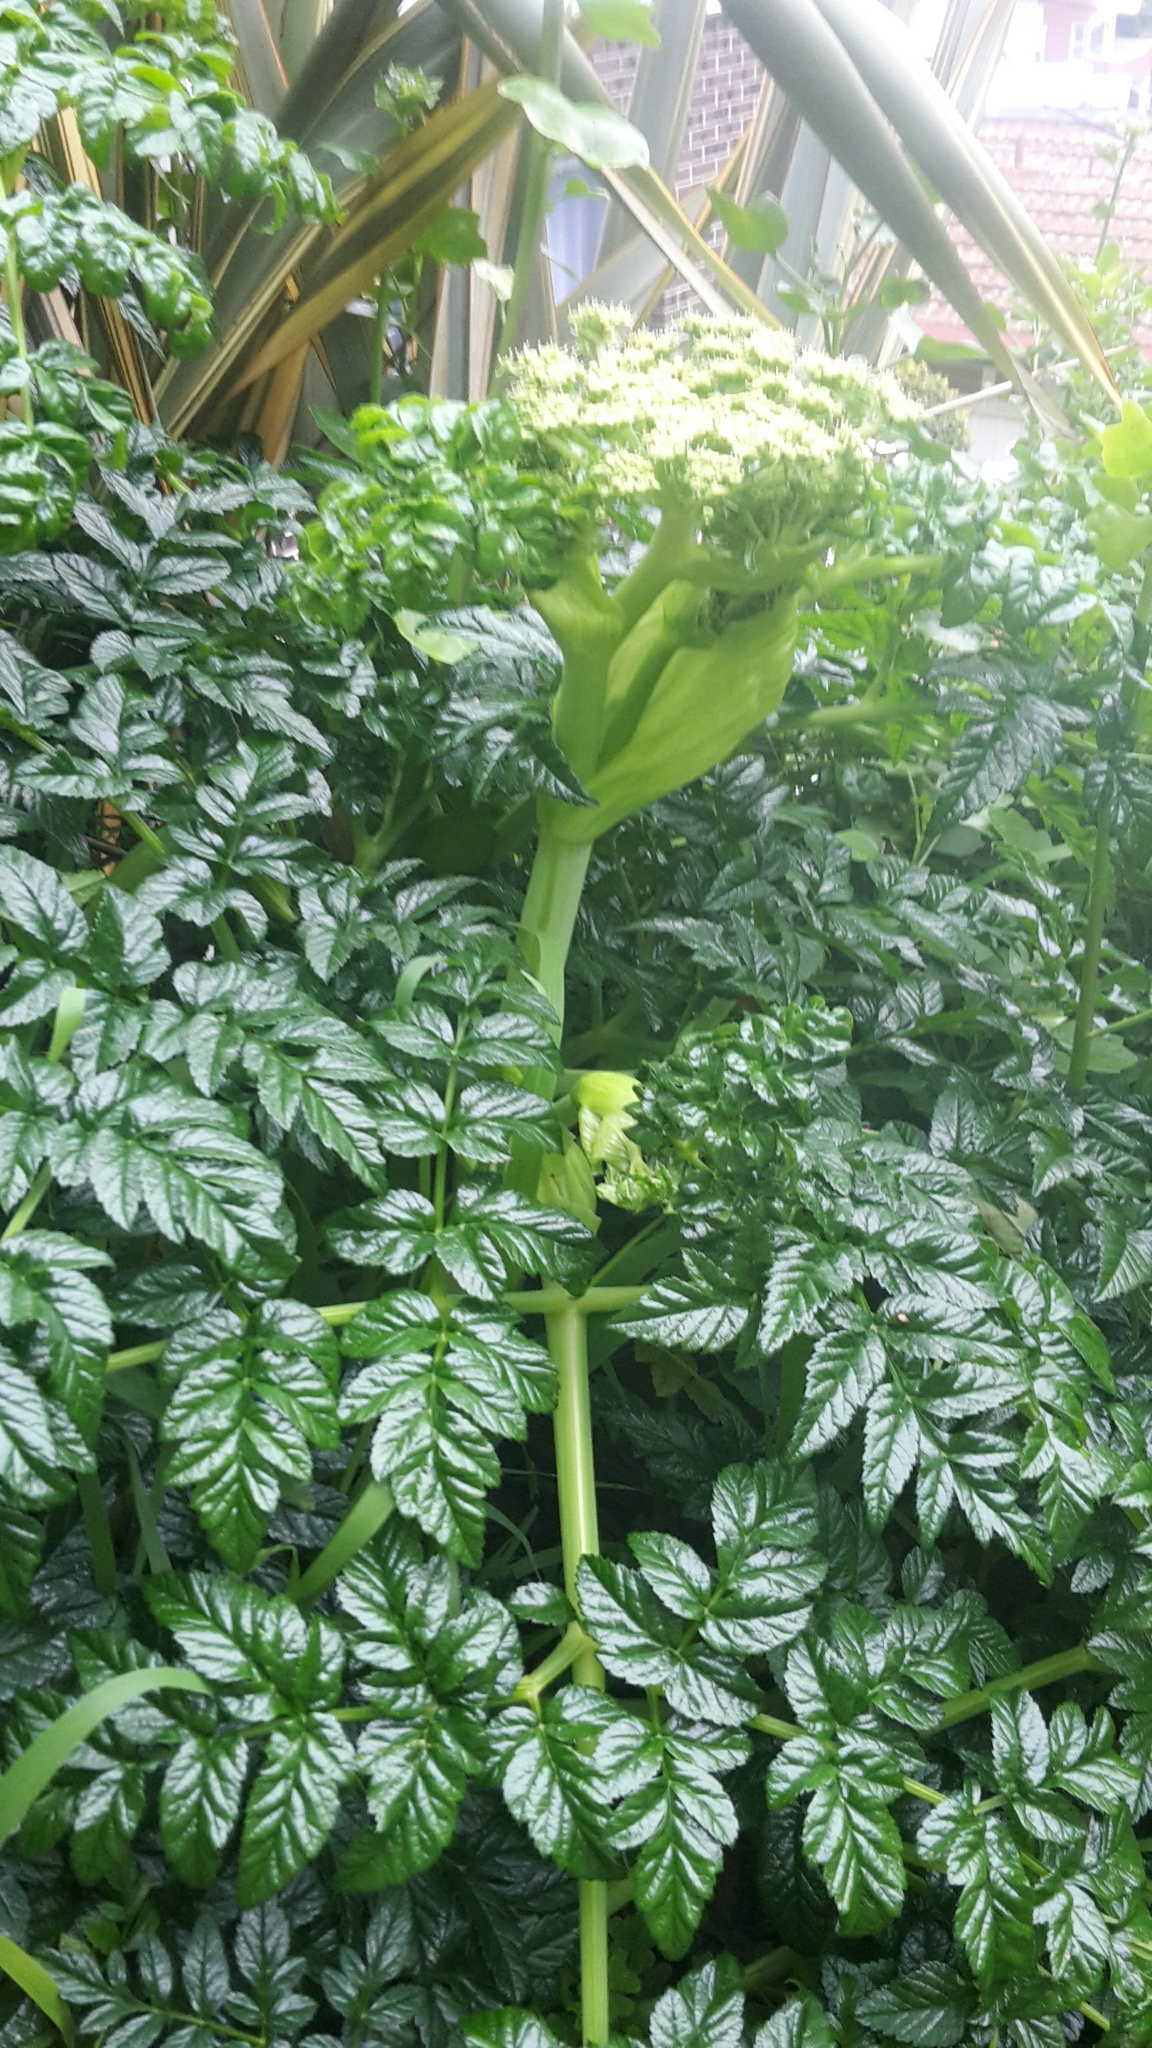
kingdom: Plantae
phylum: Tracheophyta
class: Magnoliopsida
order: Apiales
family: Apiaceae
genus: Angelica
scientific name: Angelica pachycarpa
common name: Portuguese angelica
